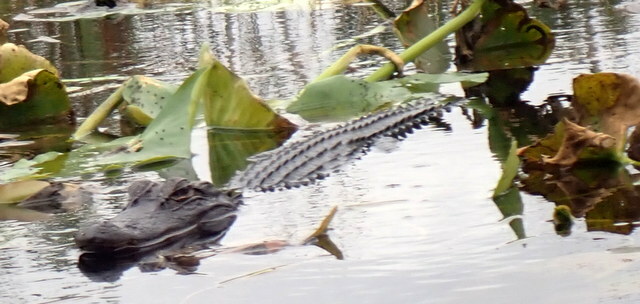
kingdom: Animalia
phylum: Chordata
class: Crocodylia
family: Alligatoridae
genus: Alligator
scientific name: Alligator mississippiensis
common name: American alligator
